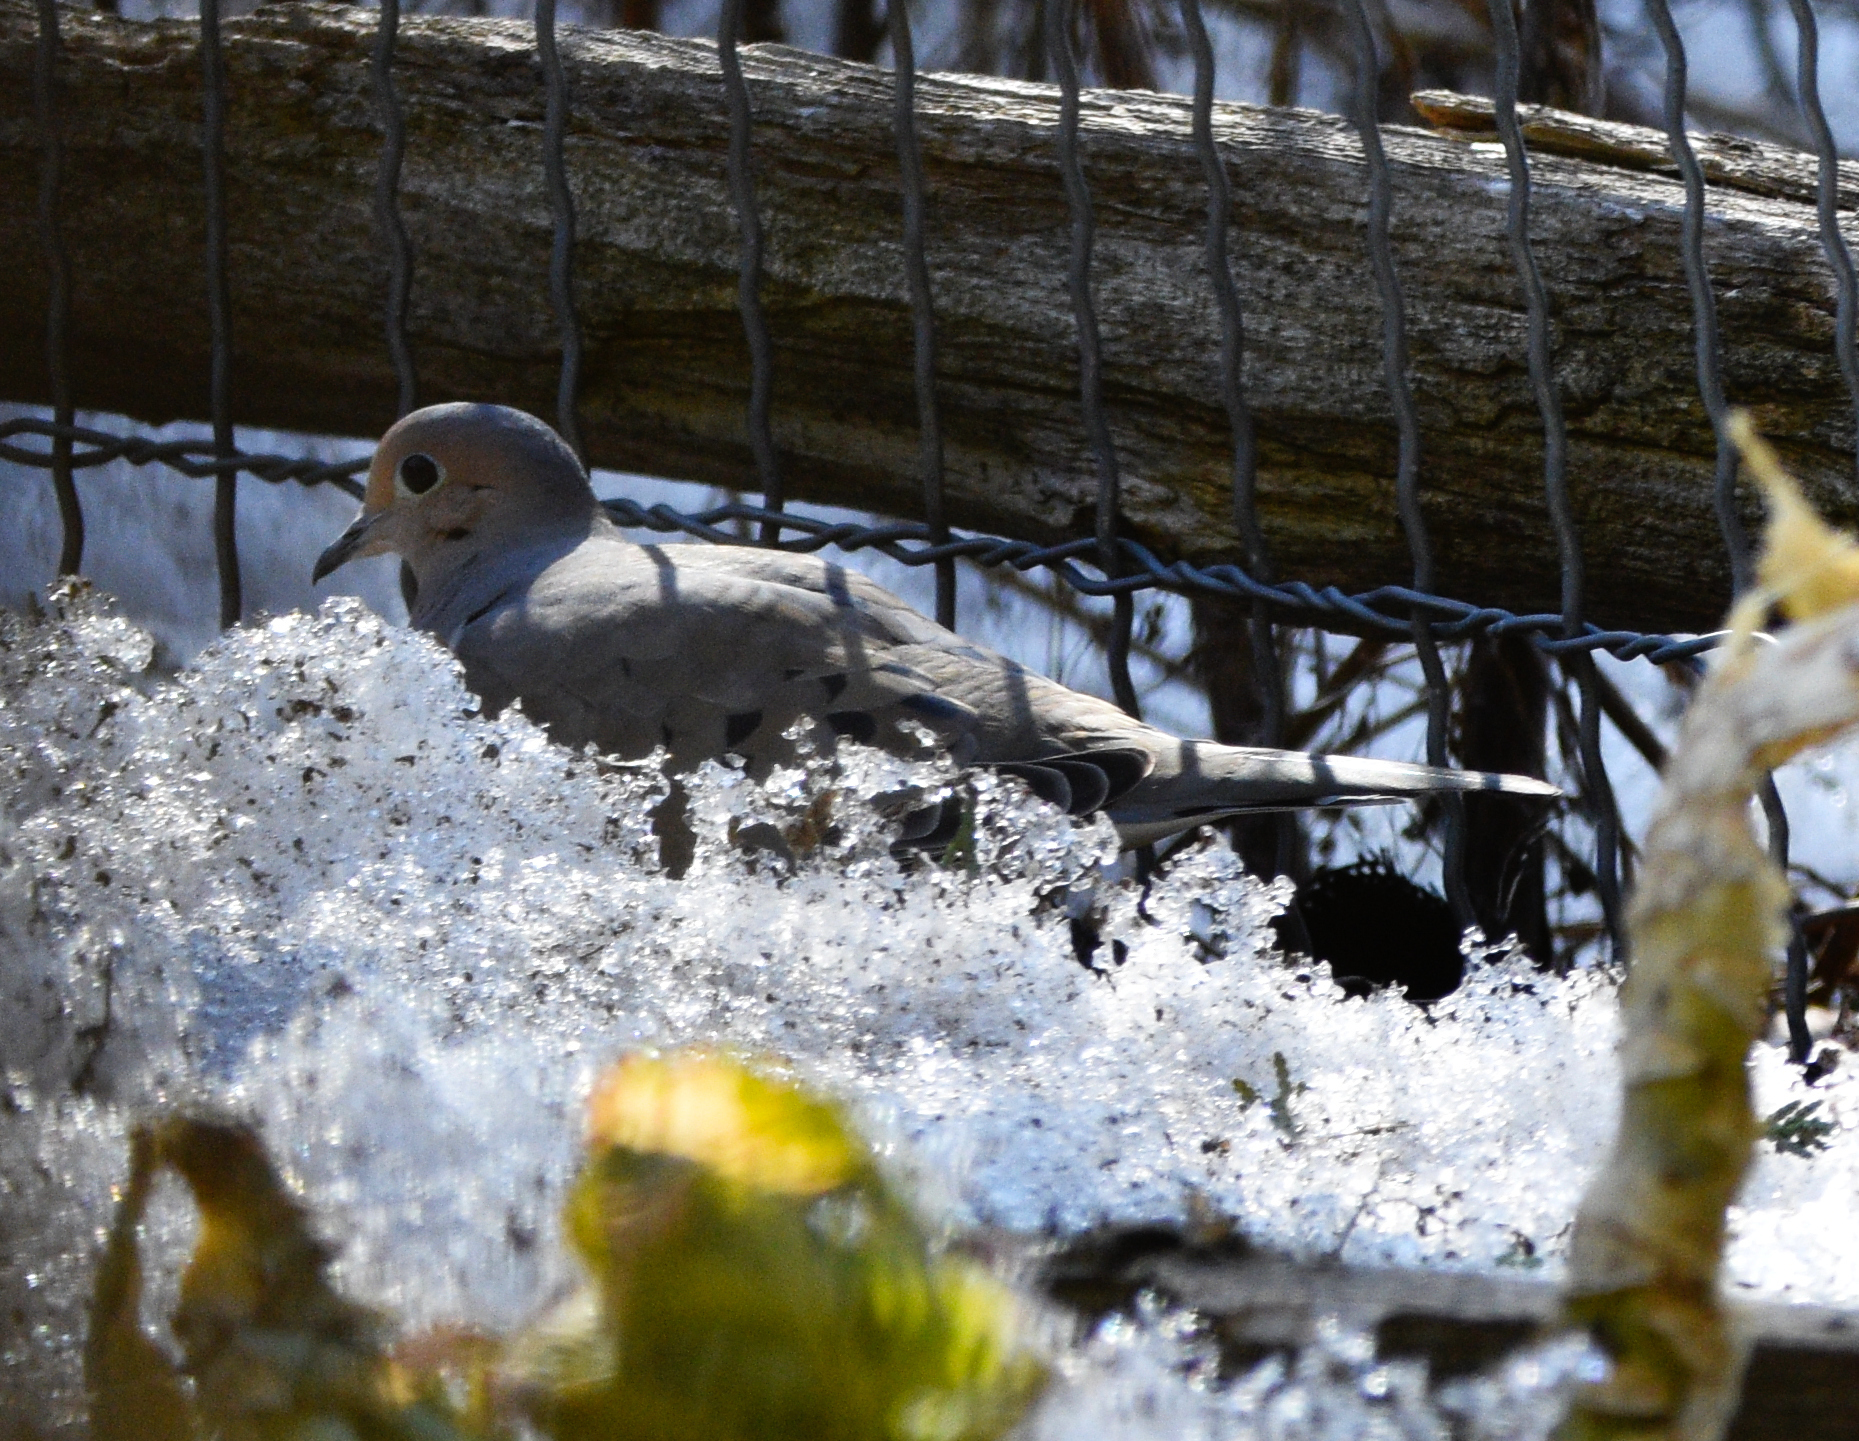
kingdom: Animalia
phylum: Chordata
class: Aves
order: Columbiformes
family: Columbidae
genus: Zenaida
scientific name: Zenaida macroura
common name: Mourning dove
